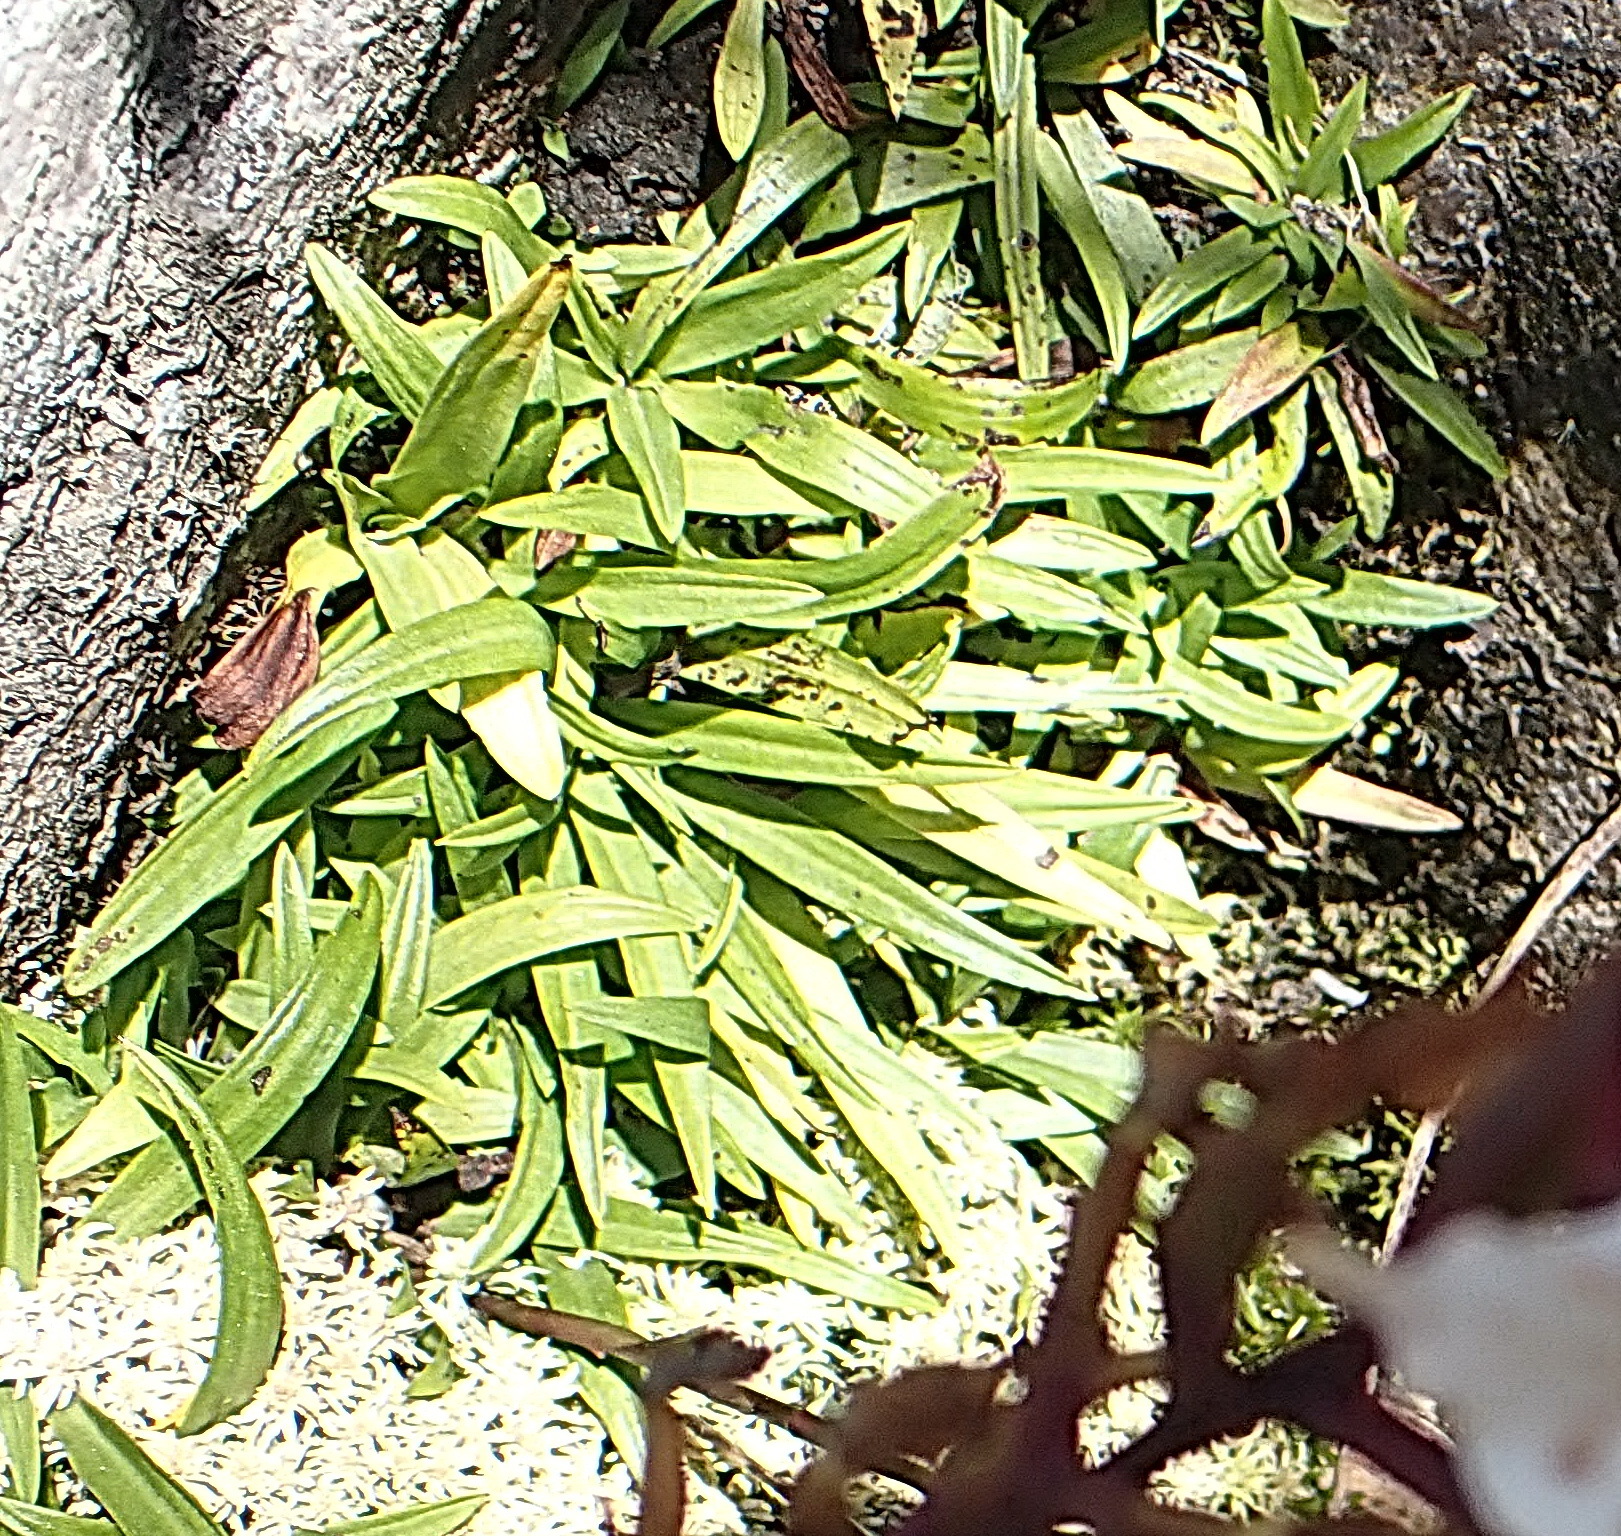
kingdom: Plantae
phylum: Tracheophyta
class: Liliopsida
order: Asparagales
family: Orchidaceae
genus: Disa
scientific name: Disa tripetaloides
